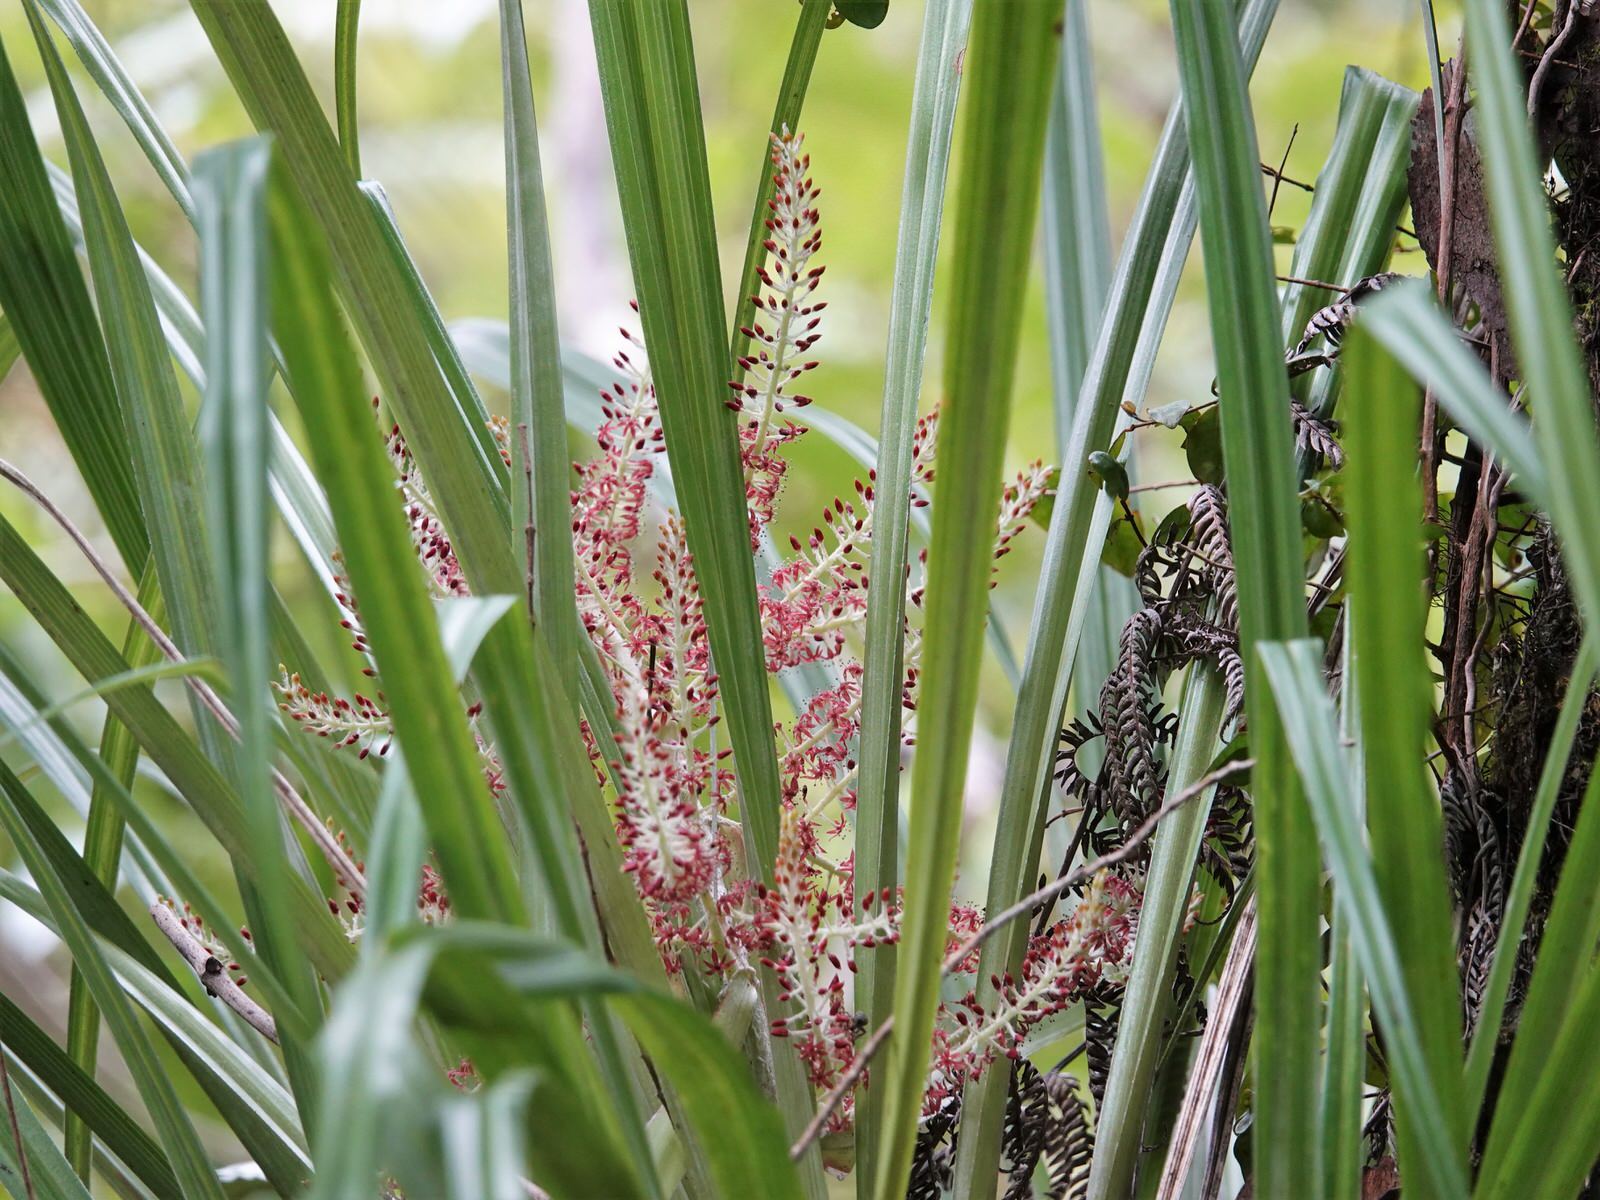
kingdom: Plantae
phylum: Tracheophyta
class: Liliopsida
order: Asparagales
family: Asteliaceae
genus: Astelia
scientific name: Astelia solandri
